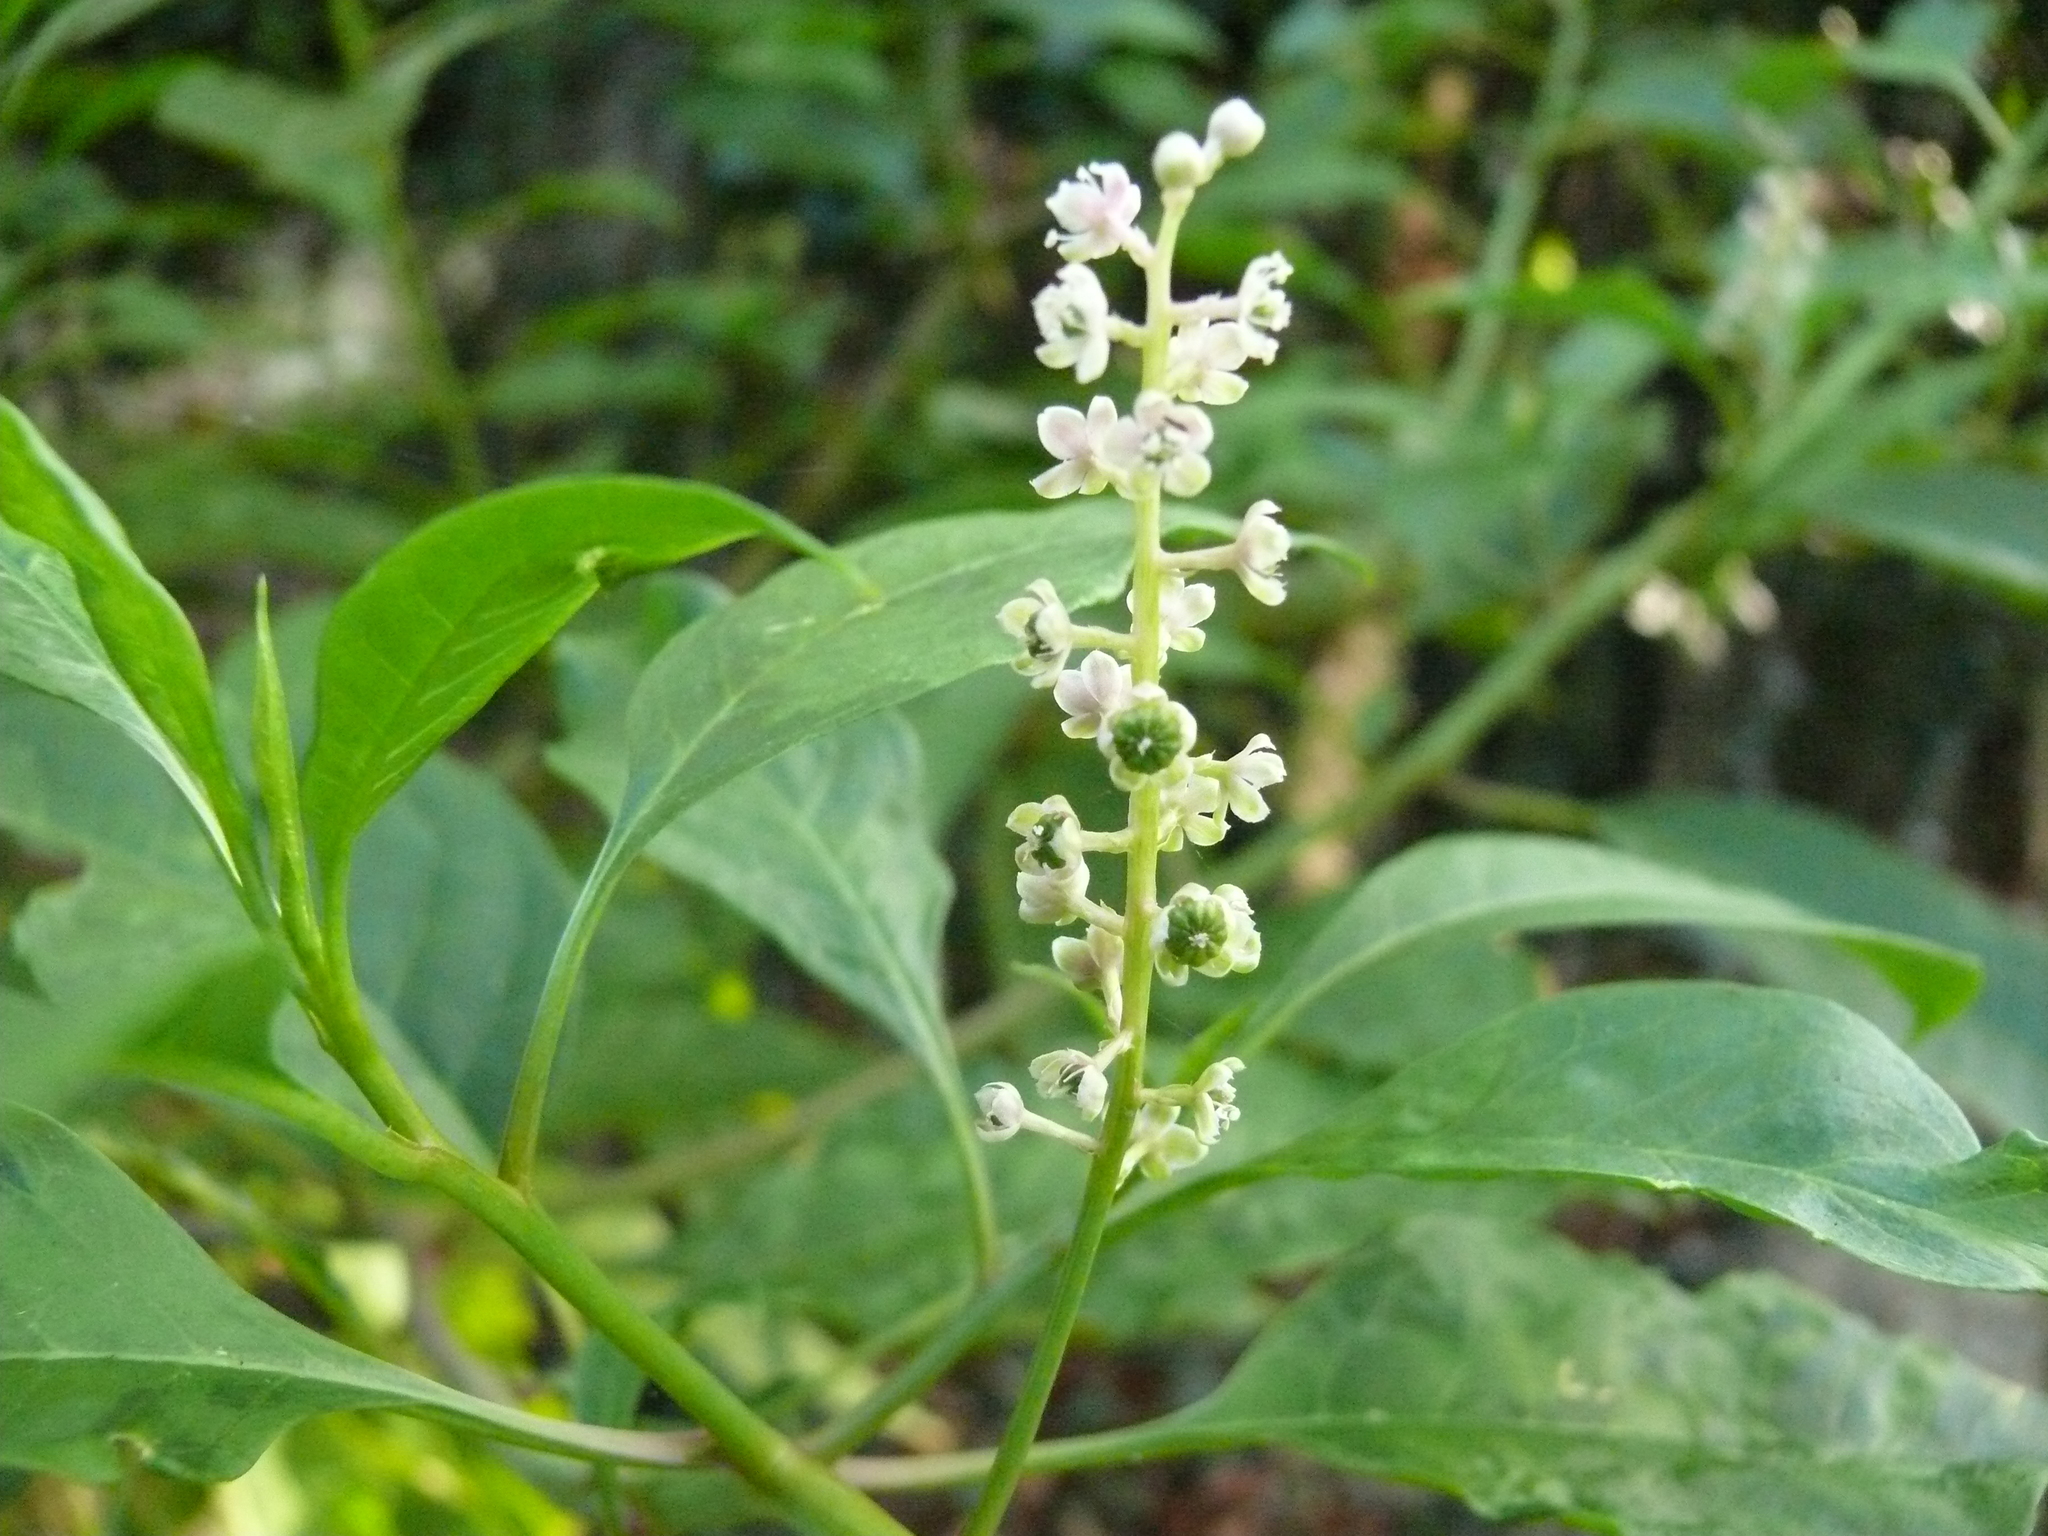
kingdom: Plantae
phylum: Tracheophyta
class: Magnoliopsida
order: Caryophyllales
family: Phytolaccaceae
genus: Phytolacca
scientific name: Phytolacca americana
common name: American pokeweed
